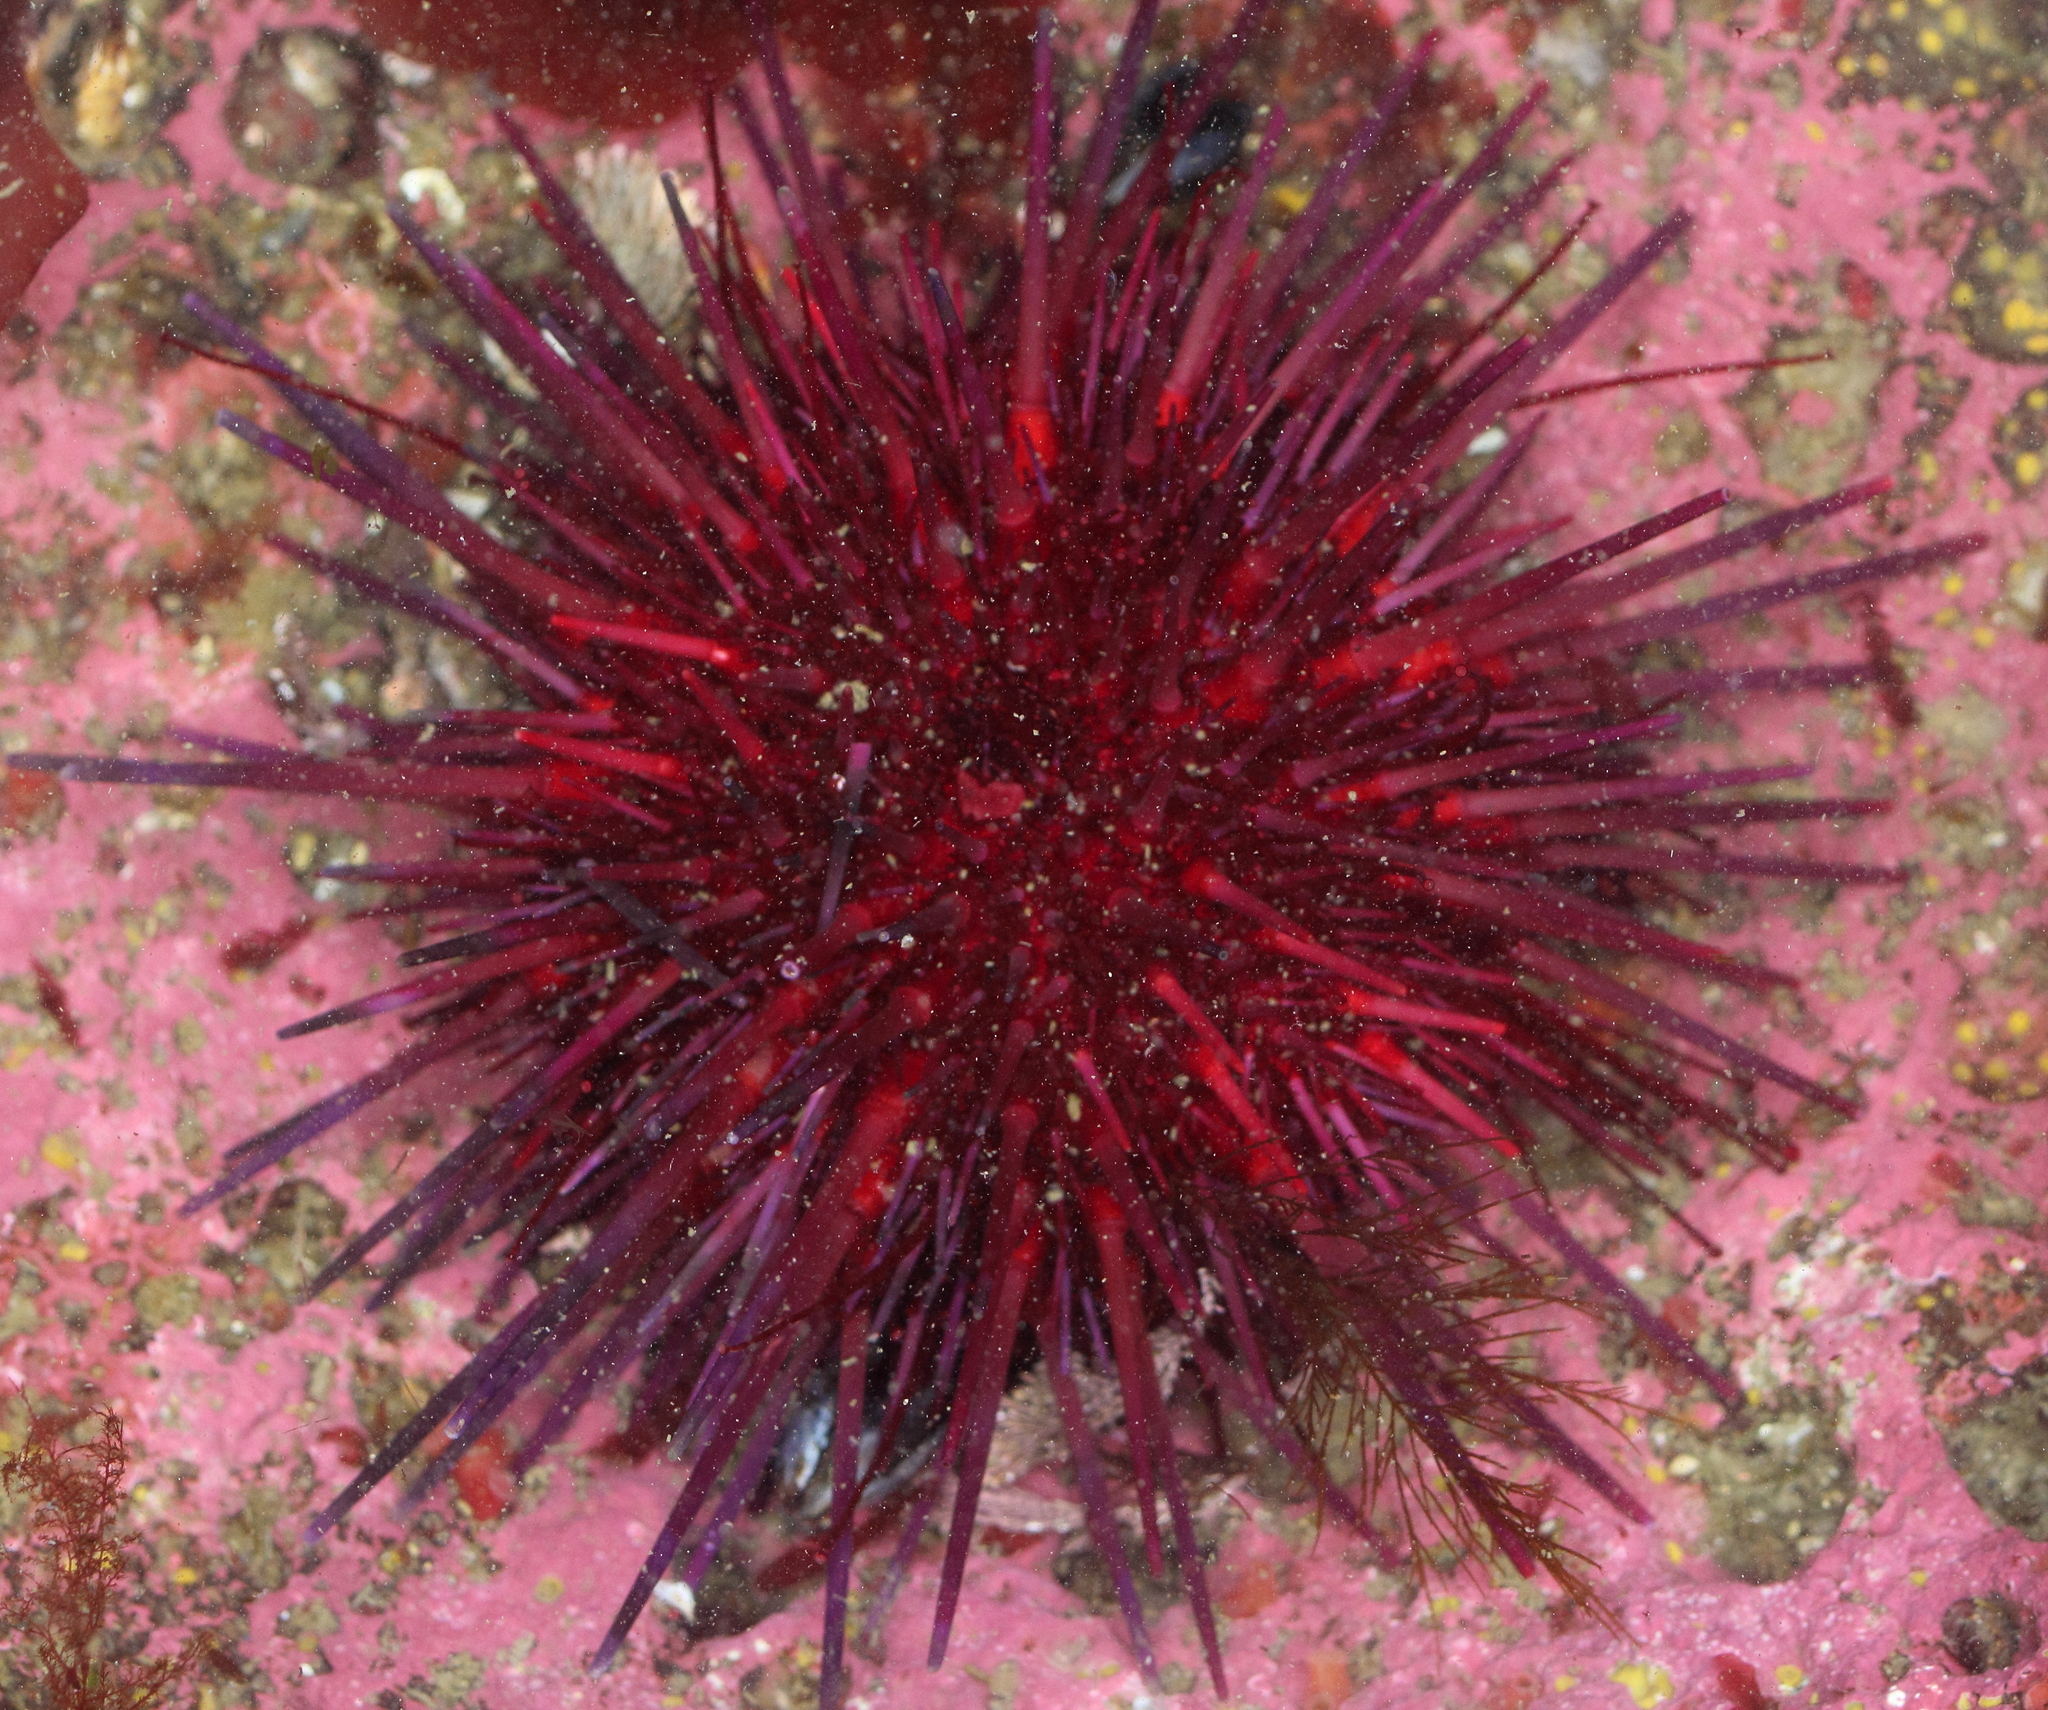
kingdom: Animalia
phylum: Echinodermata
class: Echinoidea
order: Camarodonta
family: Strongylocentrotidae
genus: Mesocentrotus
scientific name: Mesocentrotus franciscanus
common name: Red sea urchin
